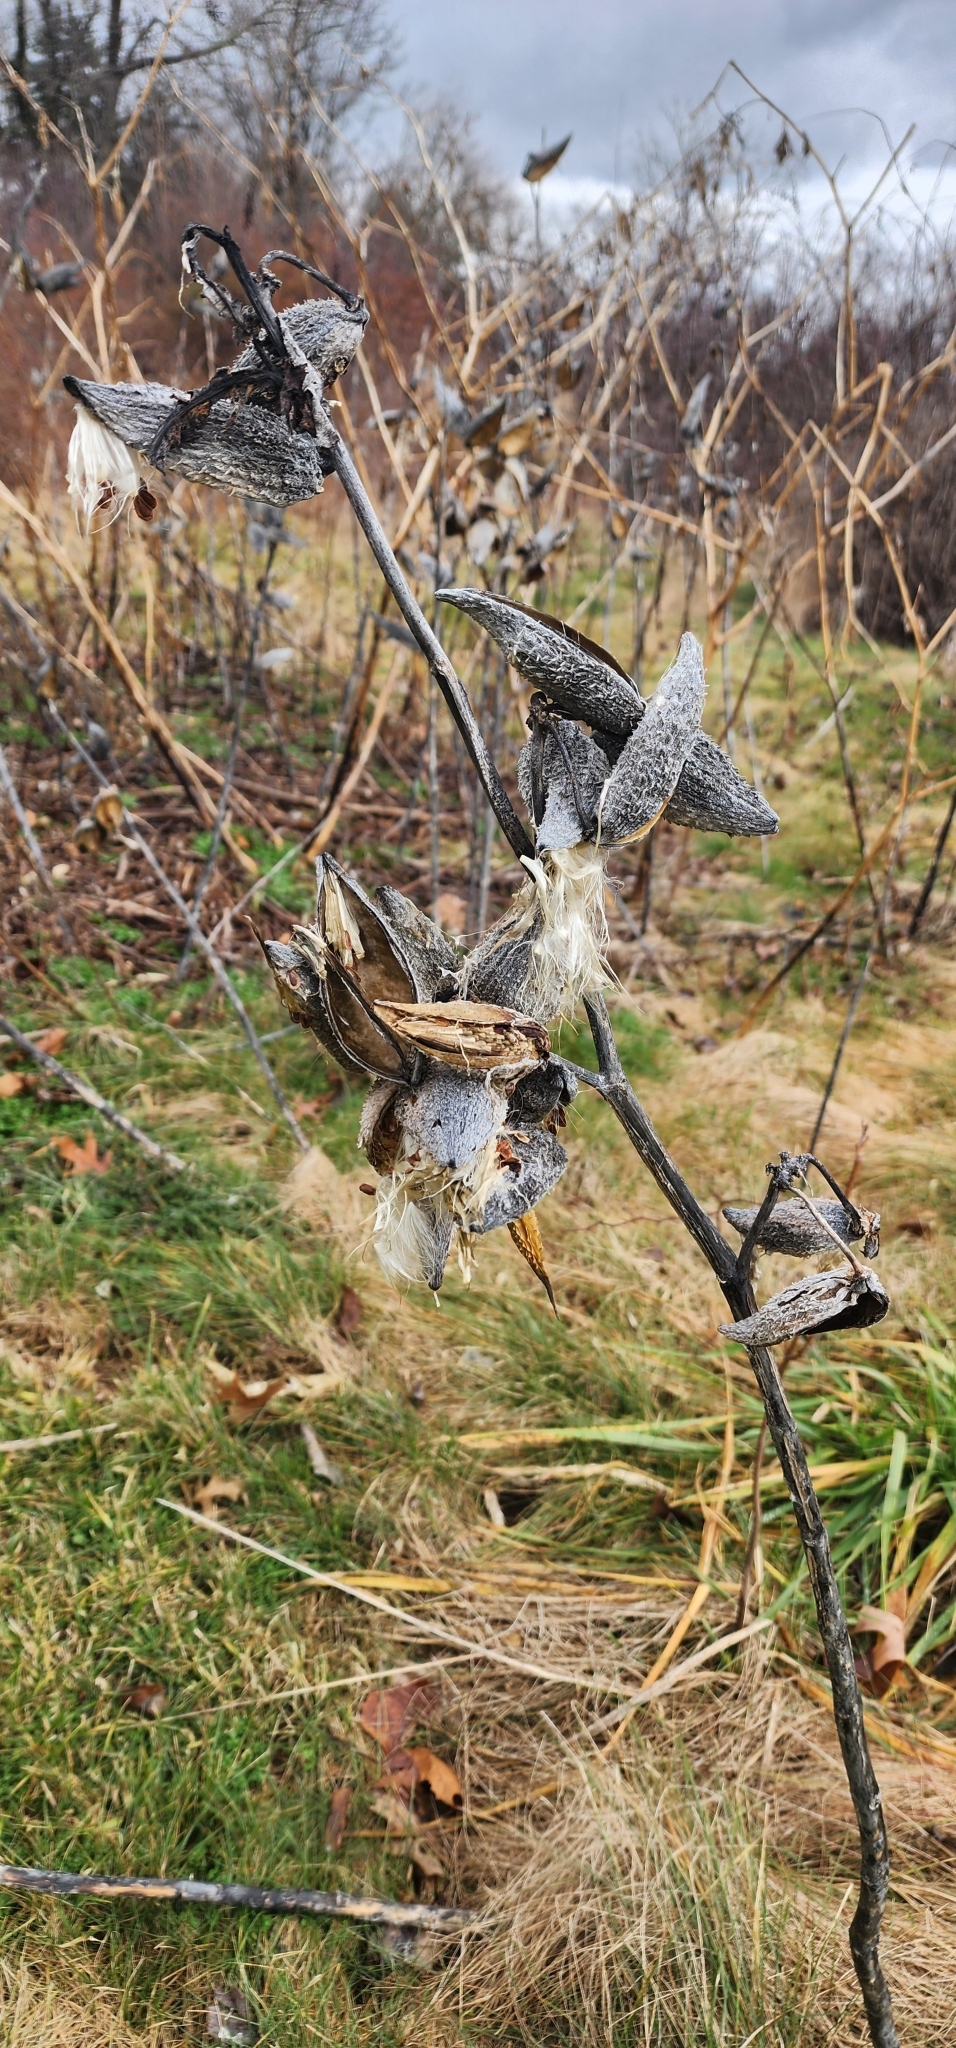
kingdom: Plantae
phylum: Tracheophyta
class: Magnoliopsida
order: Gentianales
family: Apocynaceae
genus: Asclepias
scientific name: Asclepias syriaca
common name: Common milkweed
